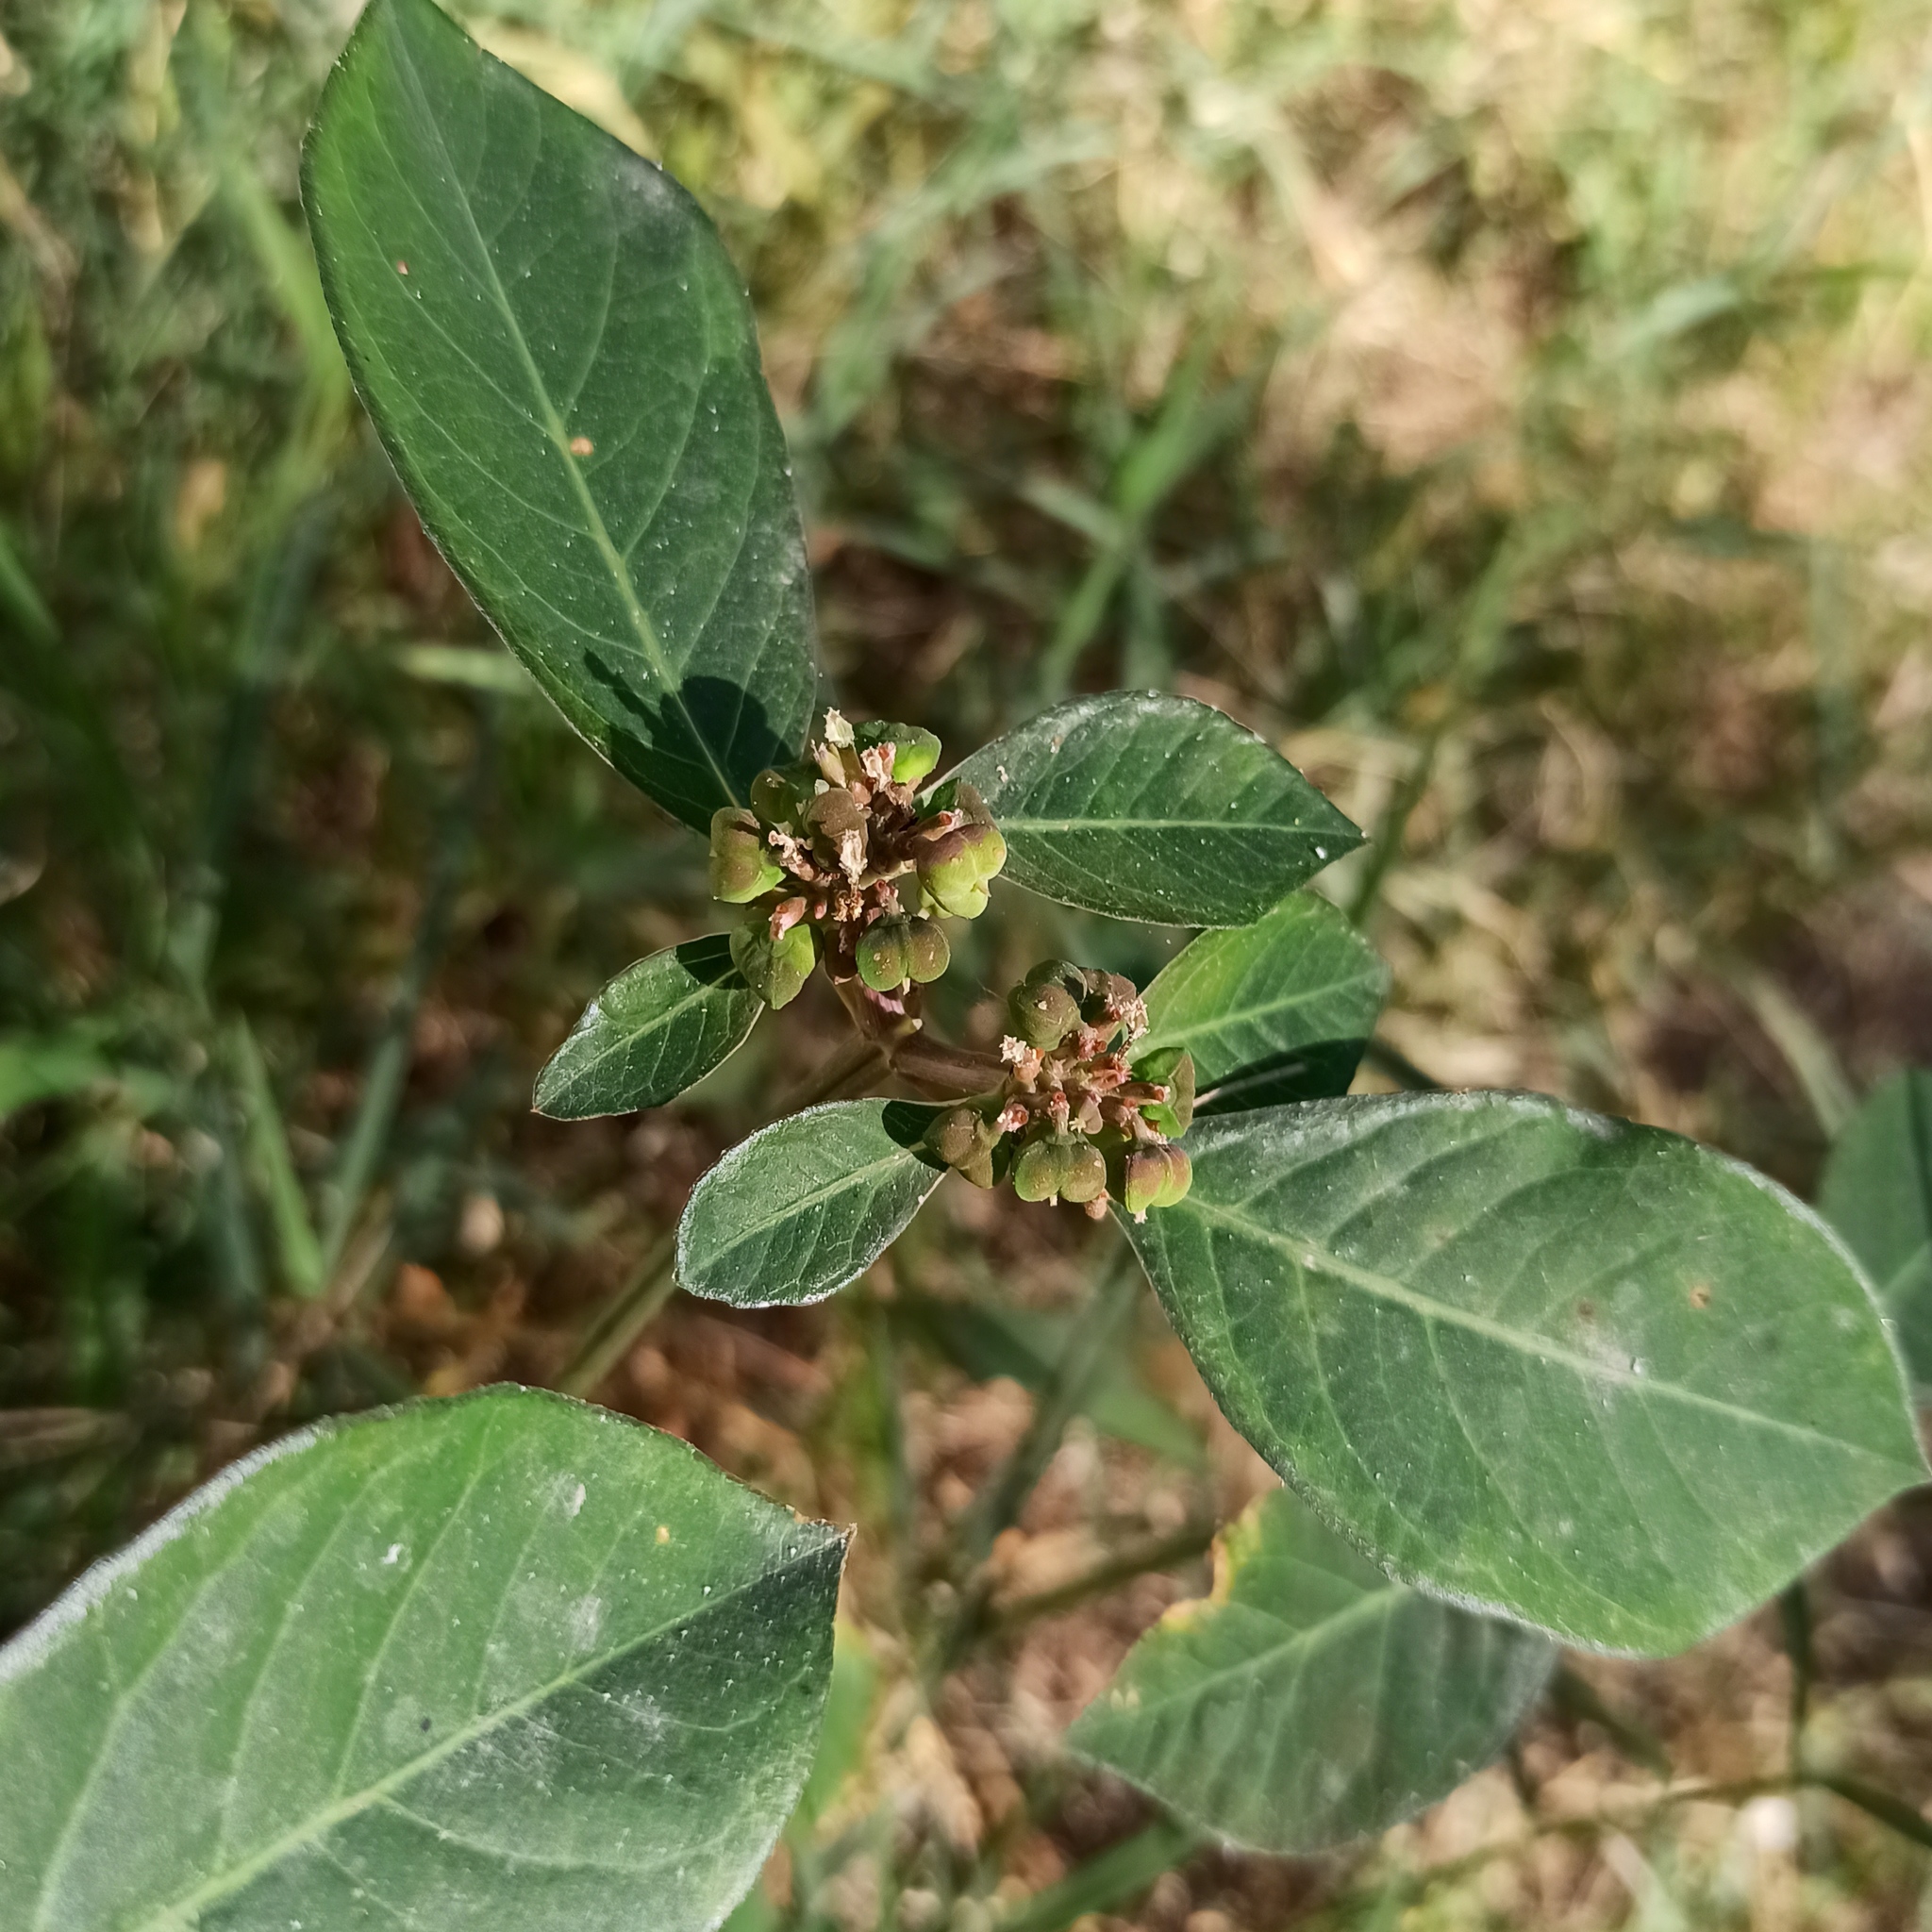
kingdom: Plantae
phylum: Tracheophyta
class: Magnoliopsida
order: Malpighiales
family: Euphorbiaceae
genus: Euphorbia
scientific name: Euphorbia heterophylla
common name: Mexican fireplant
